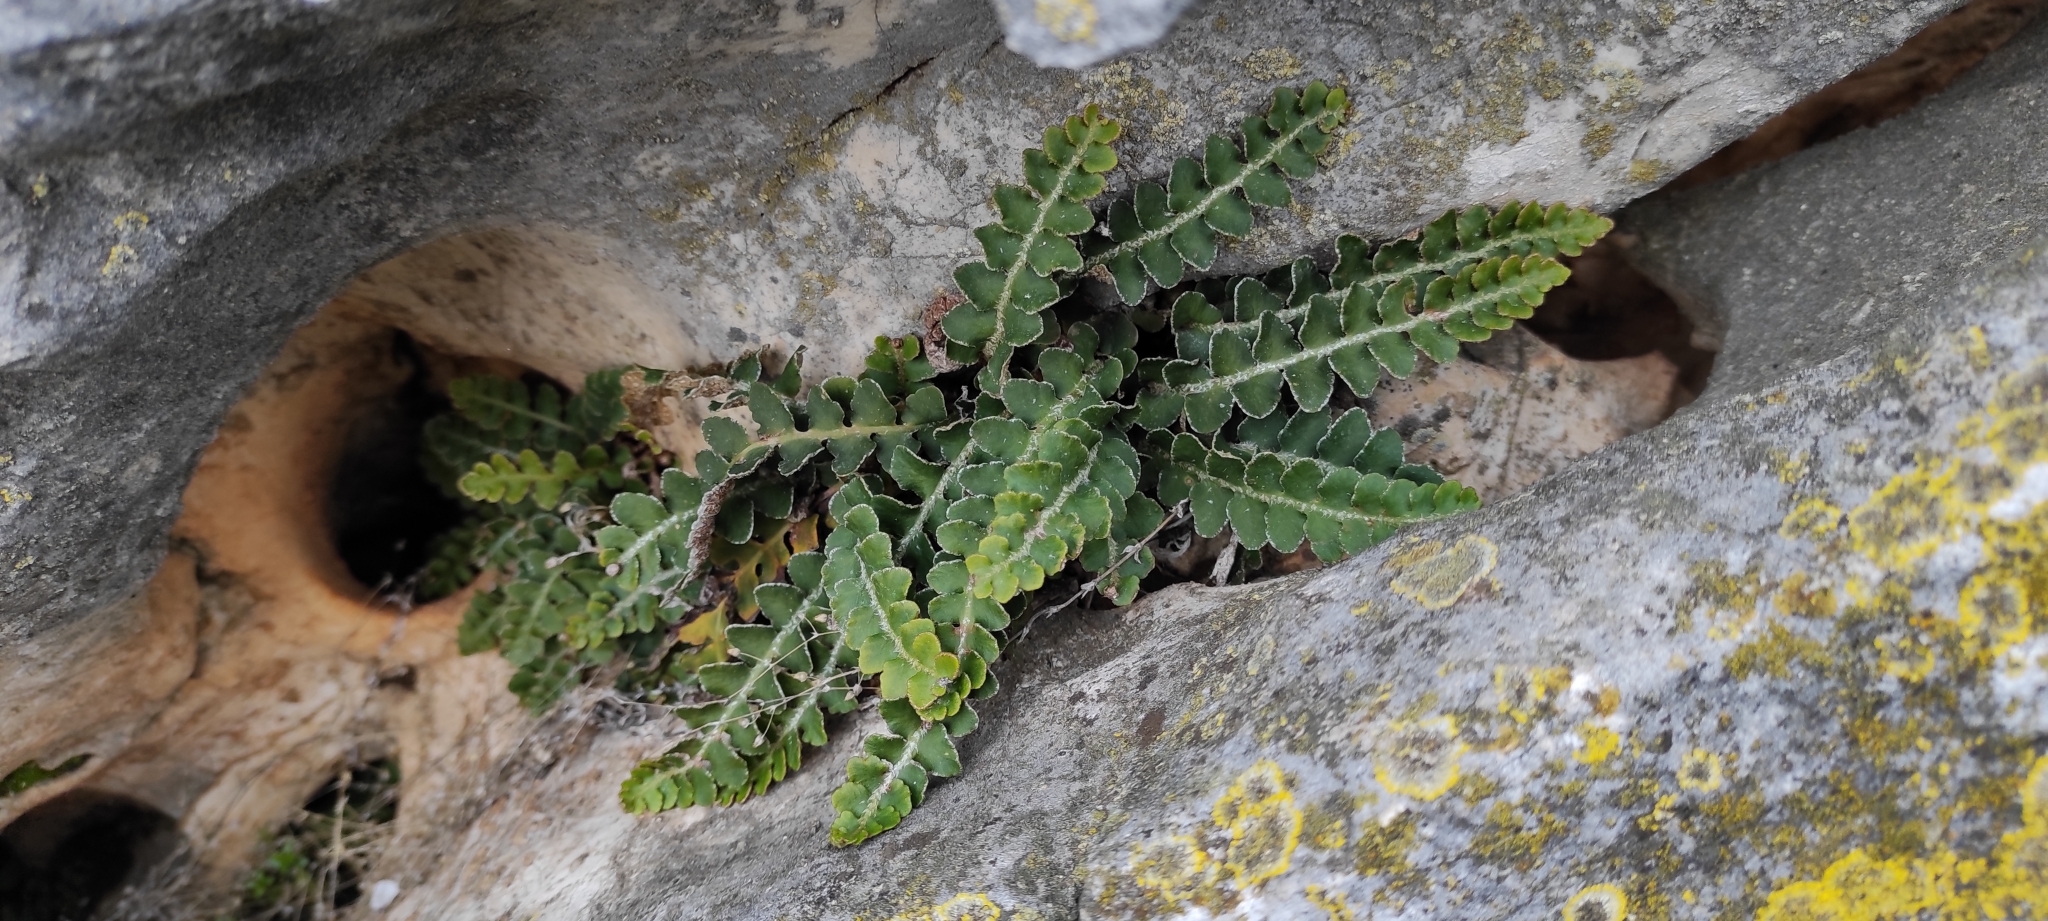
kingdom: Plantae
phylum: Tracheophyta
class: Polypodiopsida
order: Polypodiales
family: Aspleniaceae
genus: Asplenium
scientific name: Asplenium ceterach
